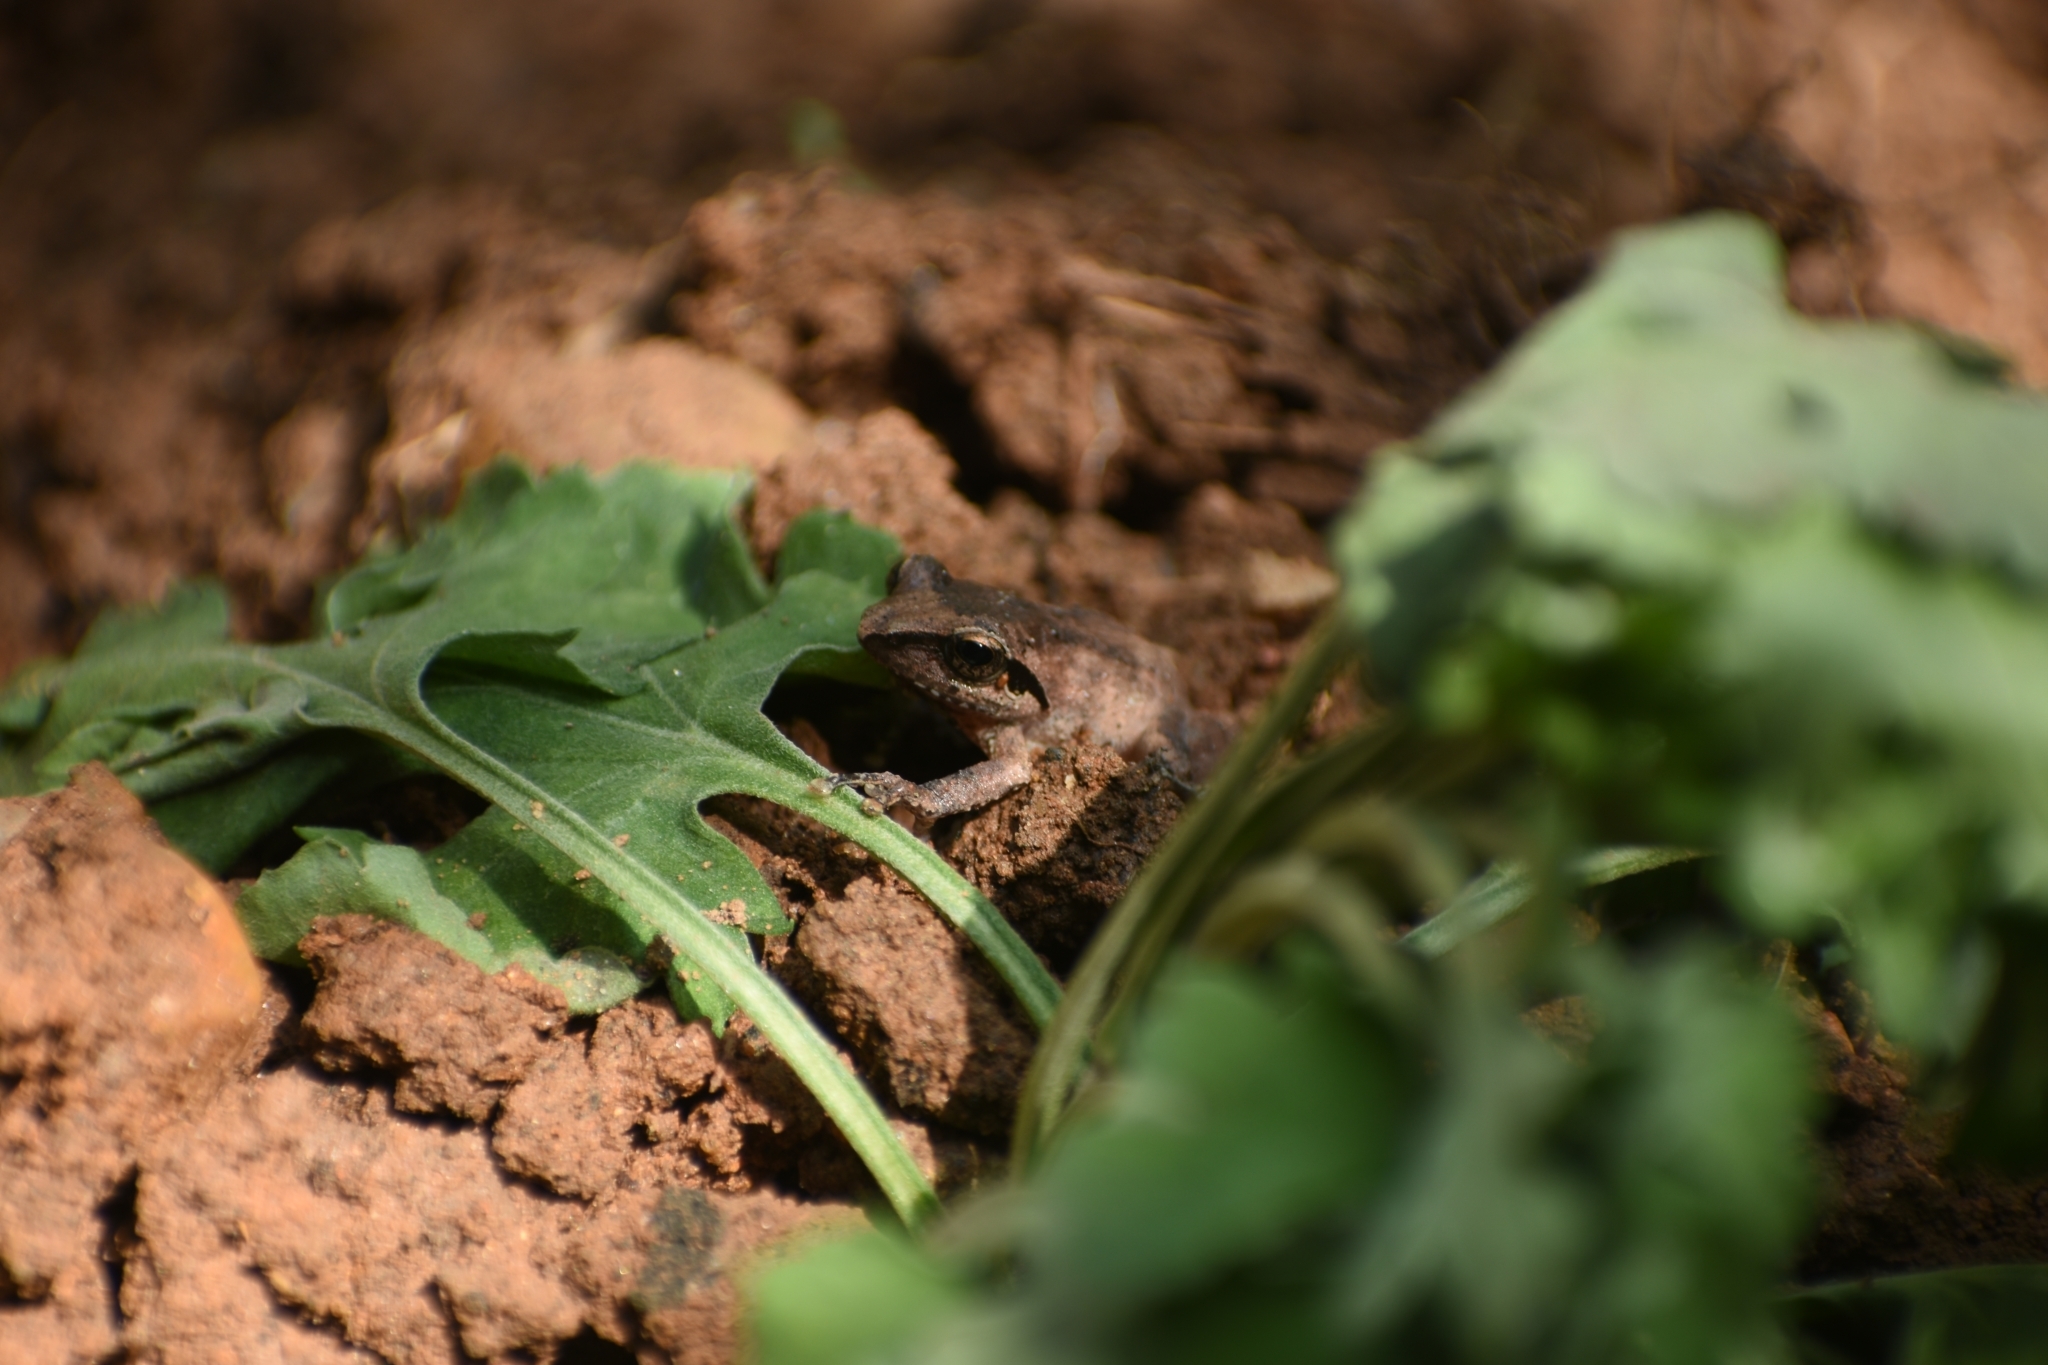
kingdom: Animalia
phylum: Chordata
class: Amphibia
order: Anura
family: Rhacophoridae
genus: Pseudophilautus
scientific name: Pseudophilautus wynaadensis
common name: Dark-eared bush frog
